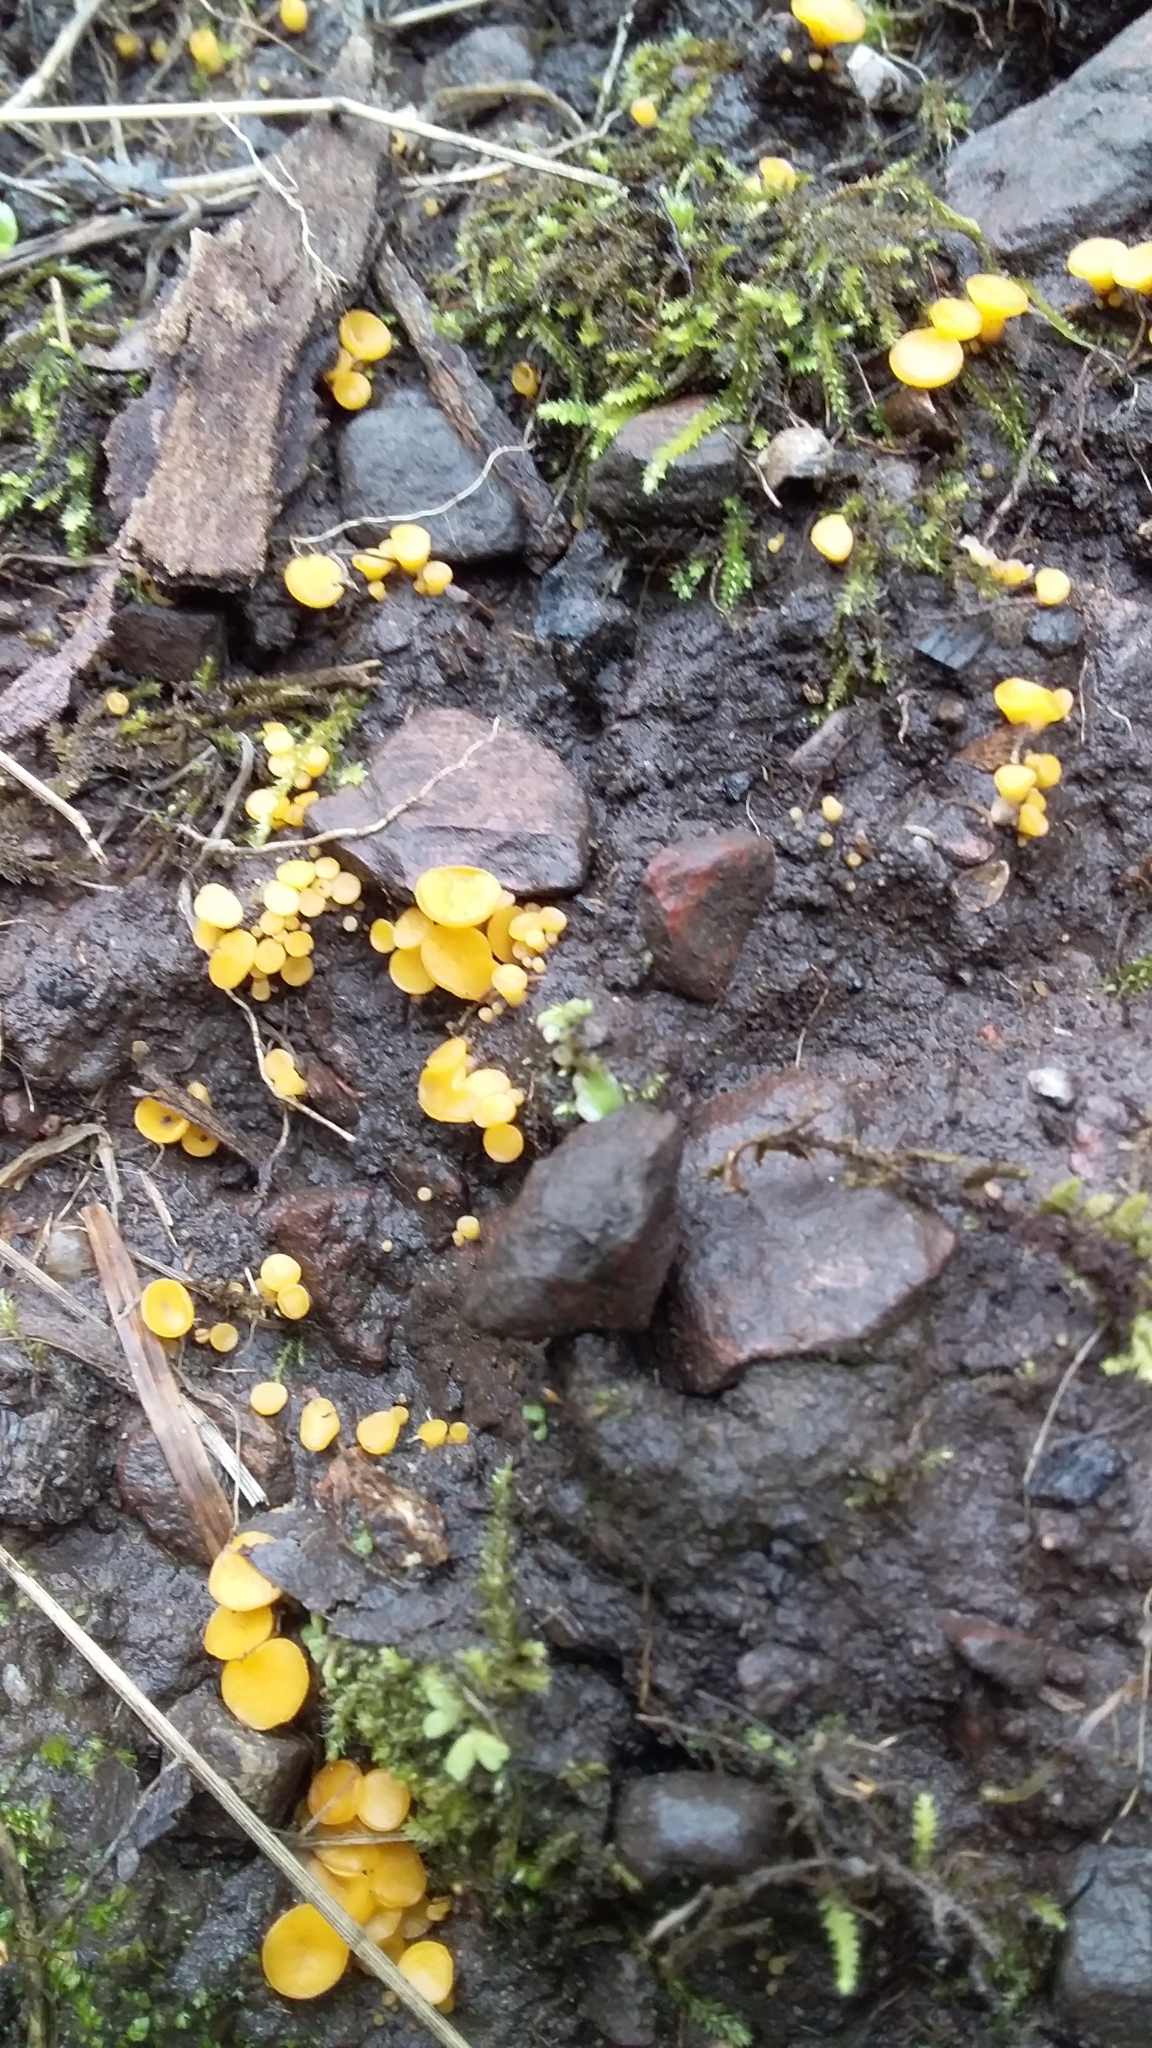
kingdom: Fungi
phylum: Ascomycota
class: Leotiomycetes
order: Helotiales
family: Helotiaceae
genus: Phaeohelotium
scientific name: Phaeohelotium baileyanum
